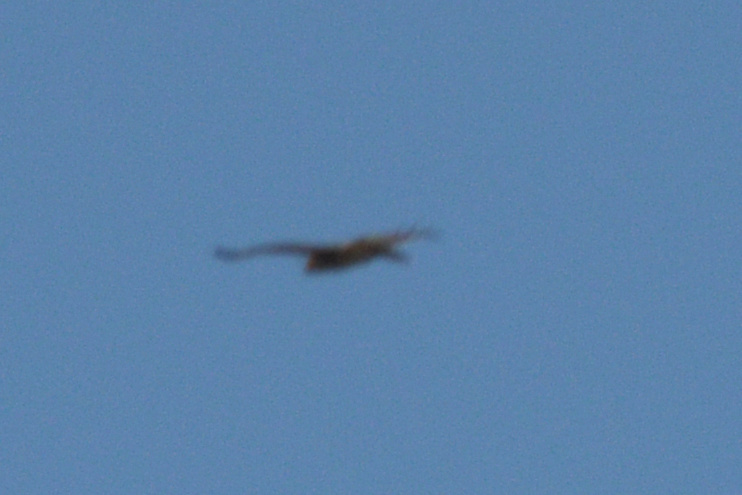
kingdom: Animalia
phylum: Chordata
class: Aves
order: Accipitriformes
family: Accipitridae
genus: Buteo
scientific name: Buteo
